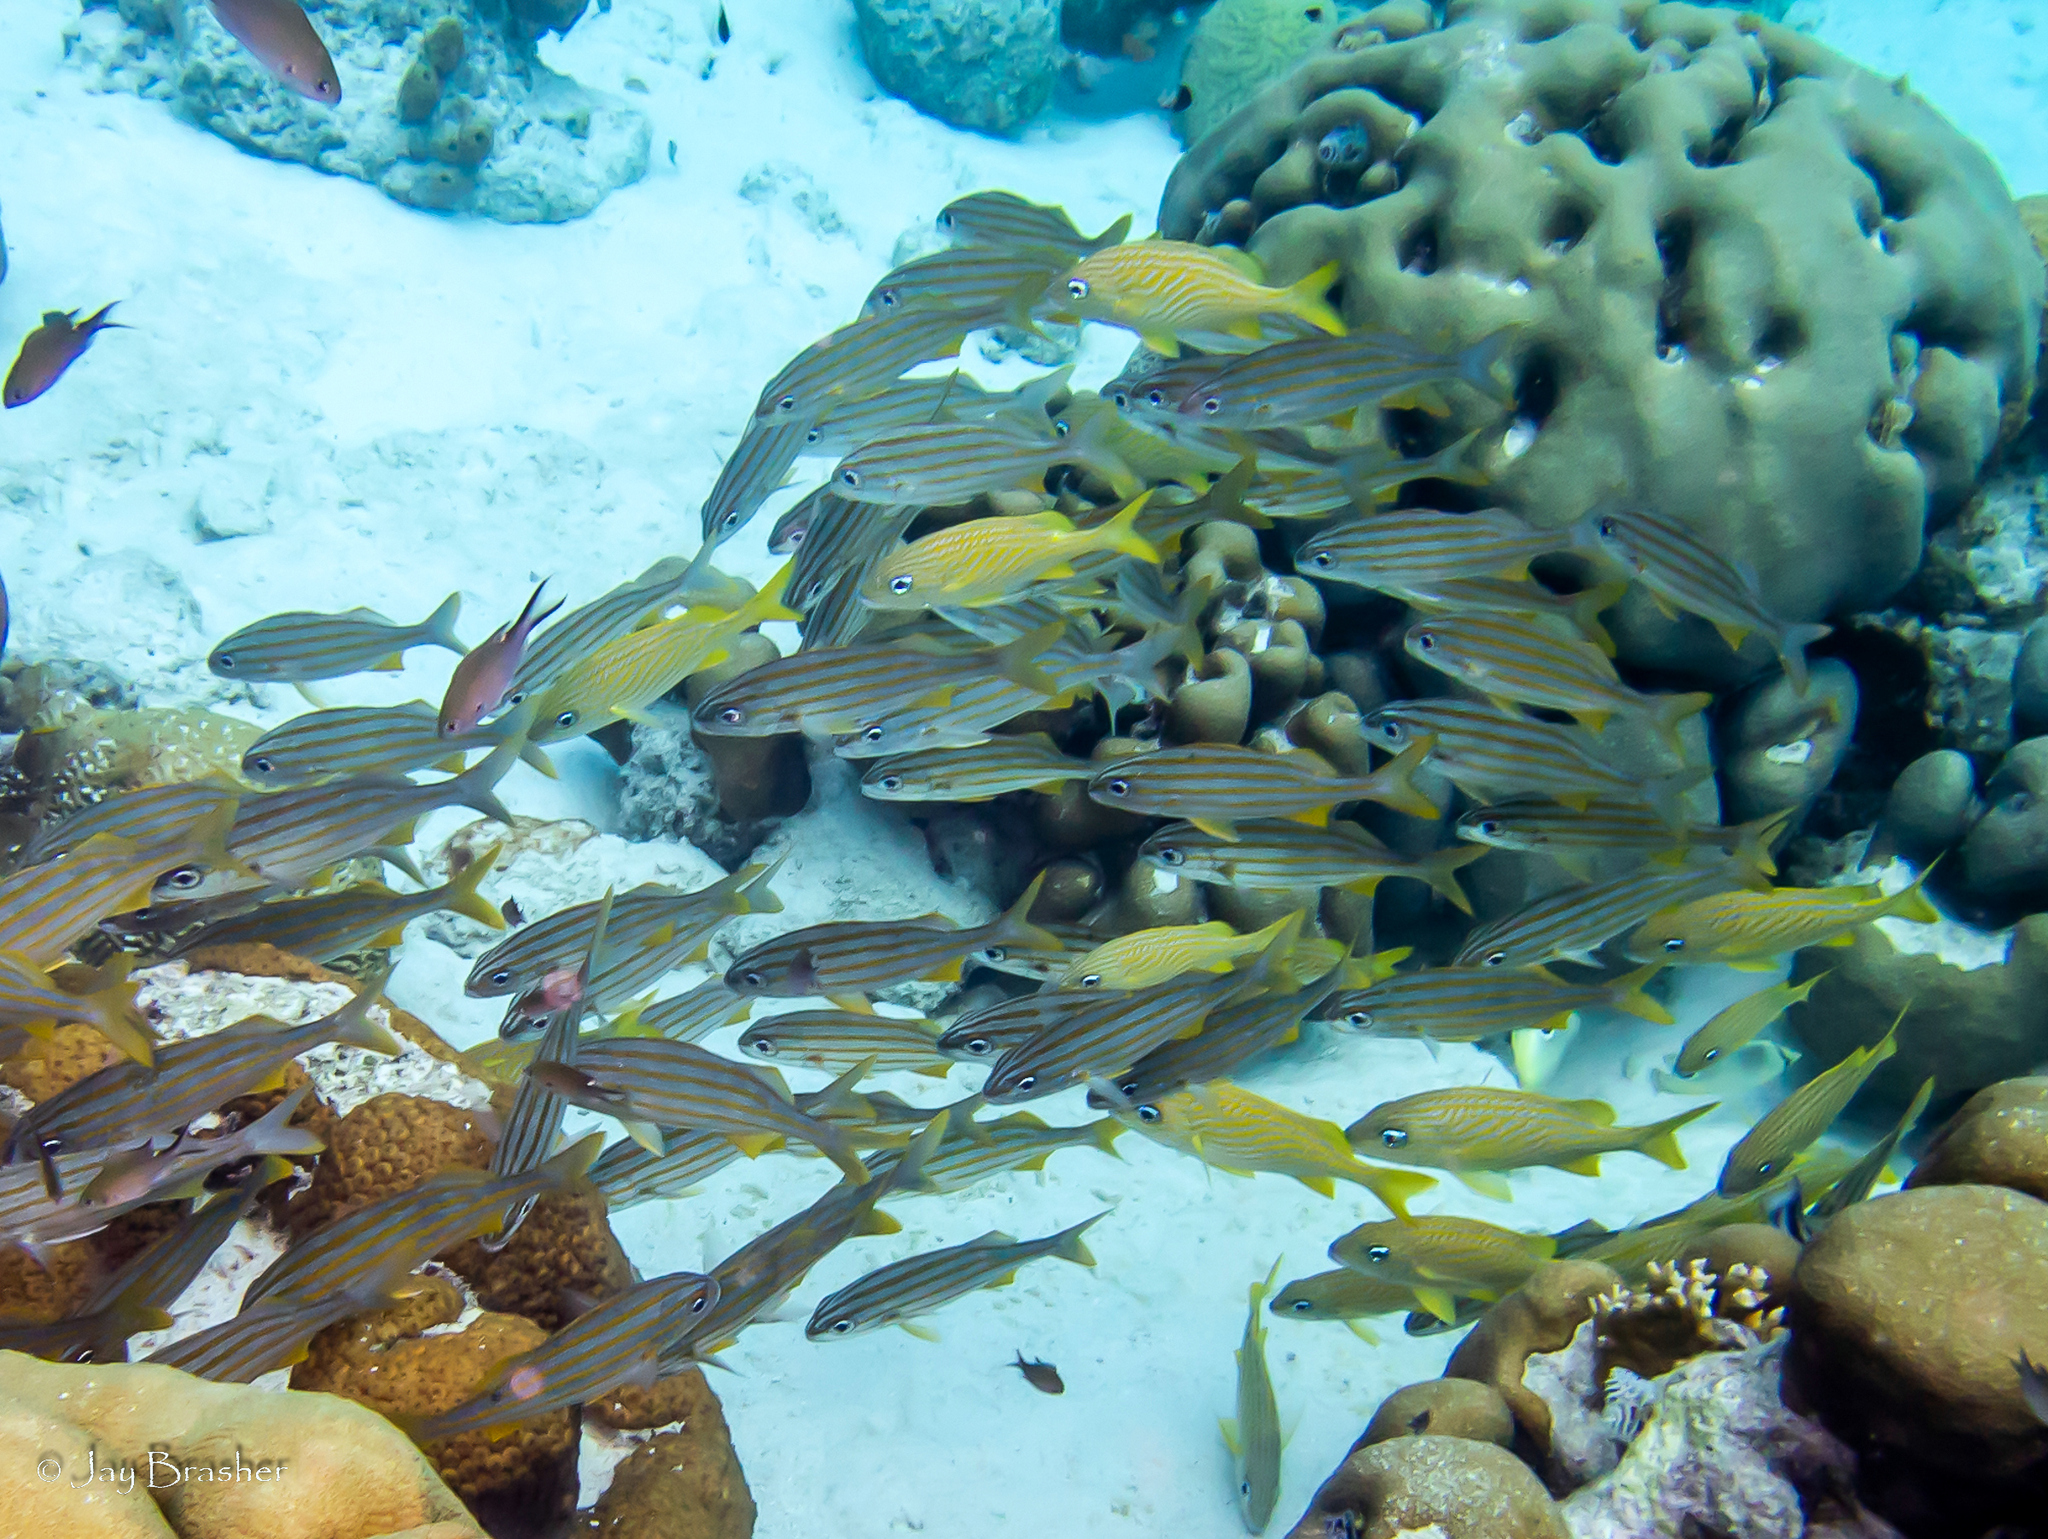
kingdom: Animalia
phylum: Chordata
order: Perciformes
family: Haemulidae
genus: Haemulon
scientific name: Haemulon flavolineatum
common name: French grunt
